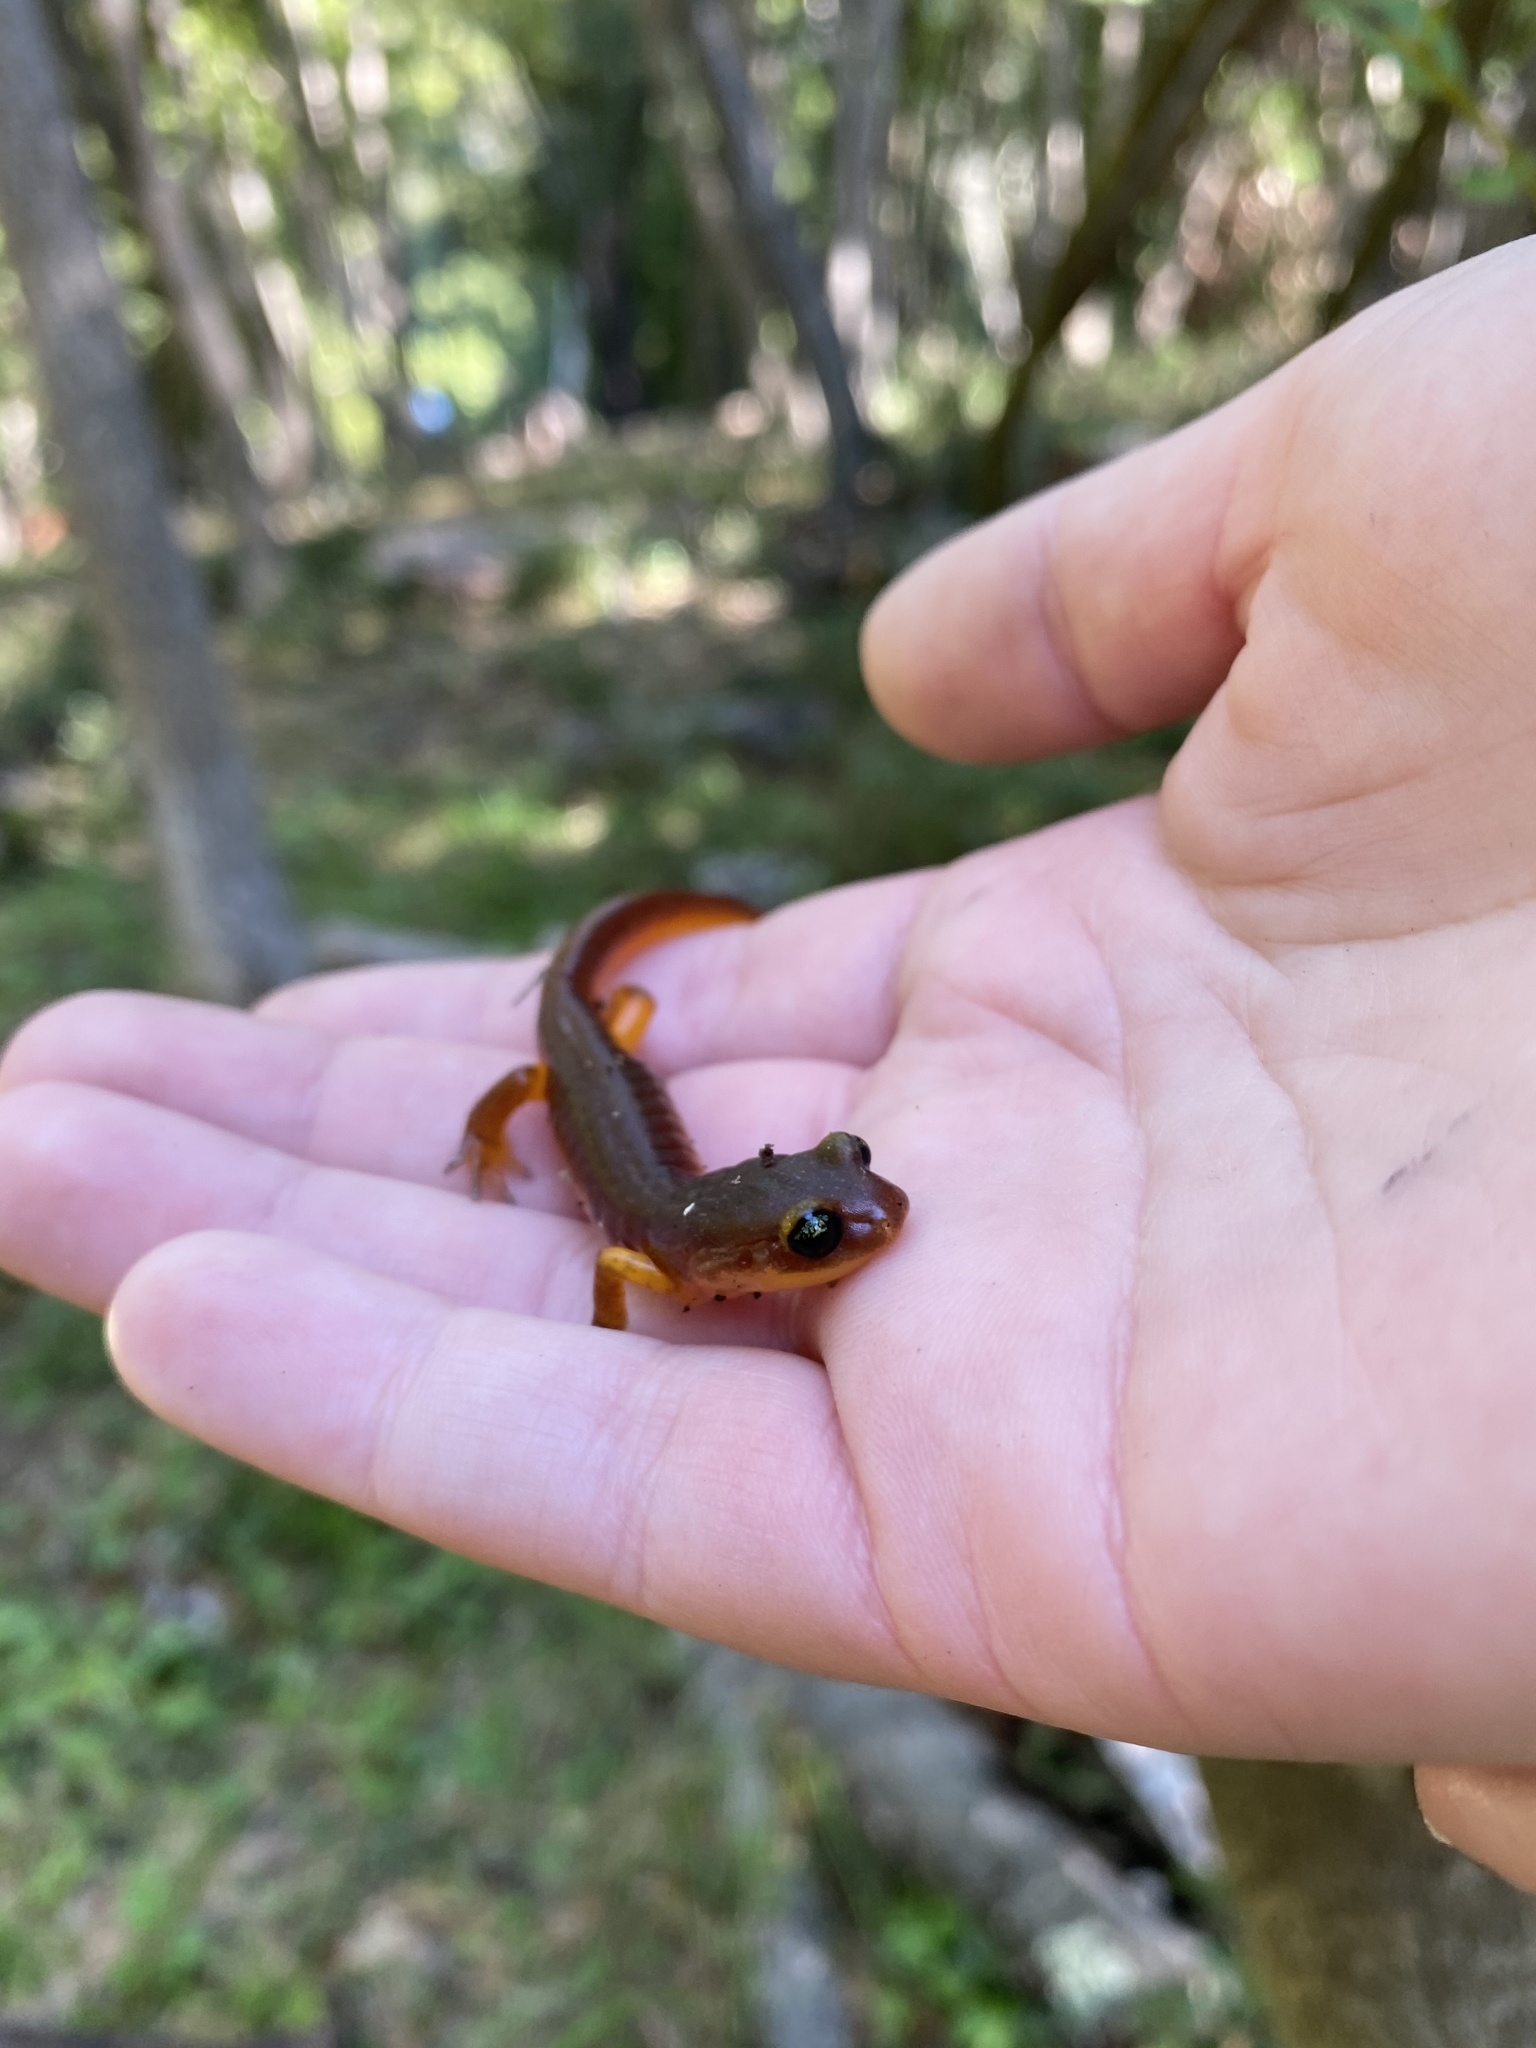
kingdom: Animalia
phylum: Chordata
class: Amphibia
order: Caudata
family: Plethodontidae
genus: Ensatina
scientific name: Ensatina eschscholtzii
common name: Ensatina
